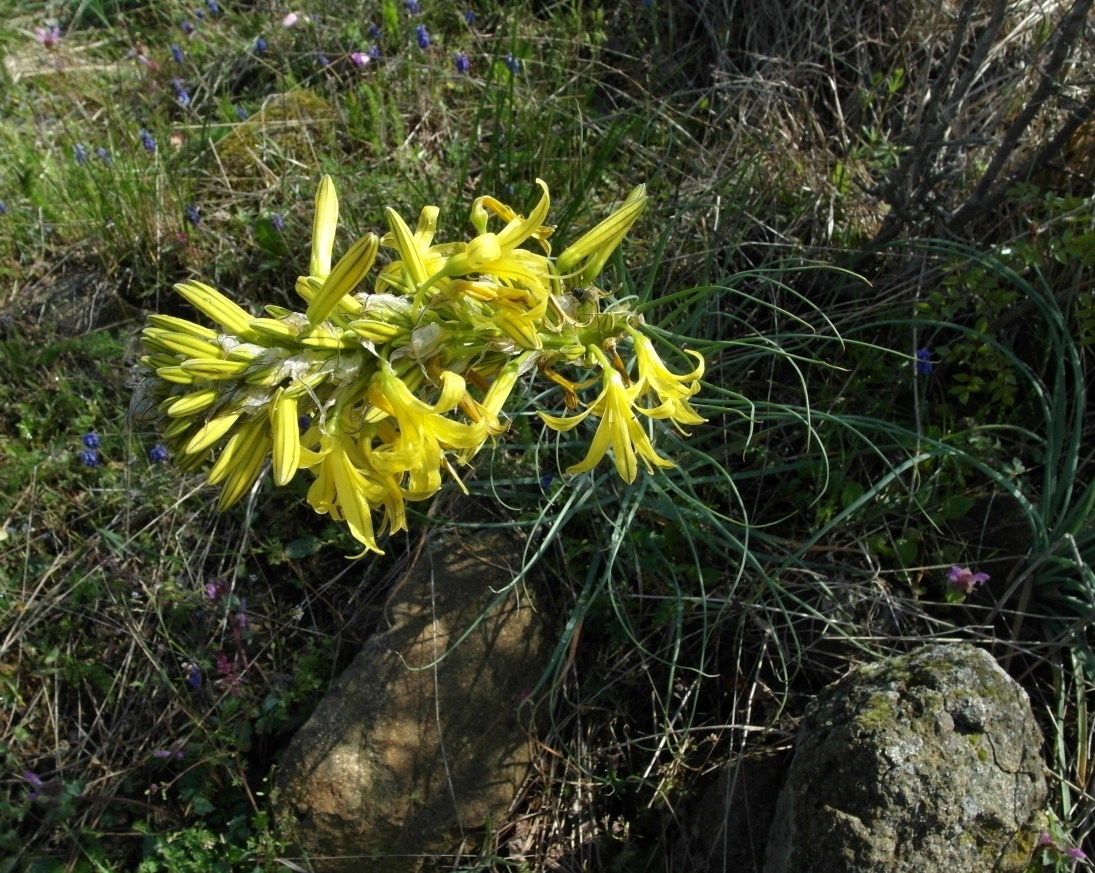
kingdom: Plantae
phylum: Tracheophyta
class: Liliopsida
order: Asparagales
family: Asphodelaceae
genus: Asphodeline
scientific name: Asphodeline lutea
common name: Yellow asphodel
